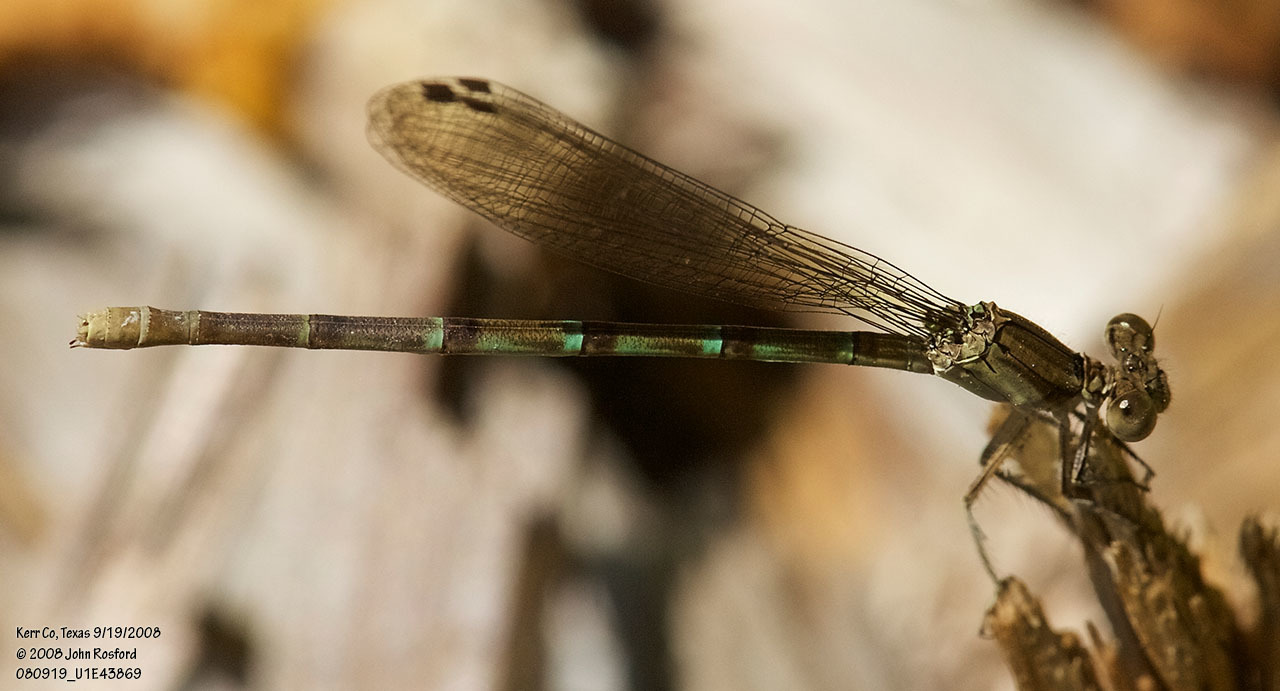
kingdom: Animalia
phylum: Arthropoda
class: Insecta
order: Odonata
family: Coenagrionidae
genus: Argia
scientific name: Argia sedula
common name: Blue-ringed dancer
